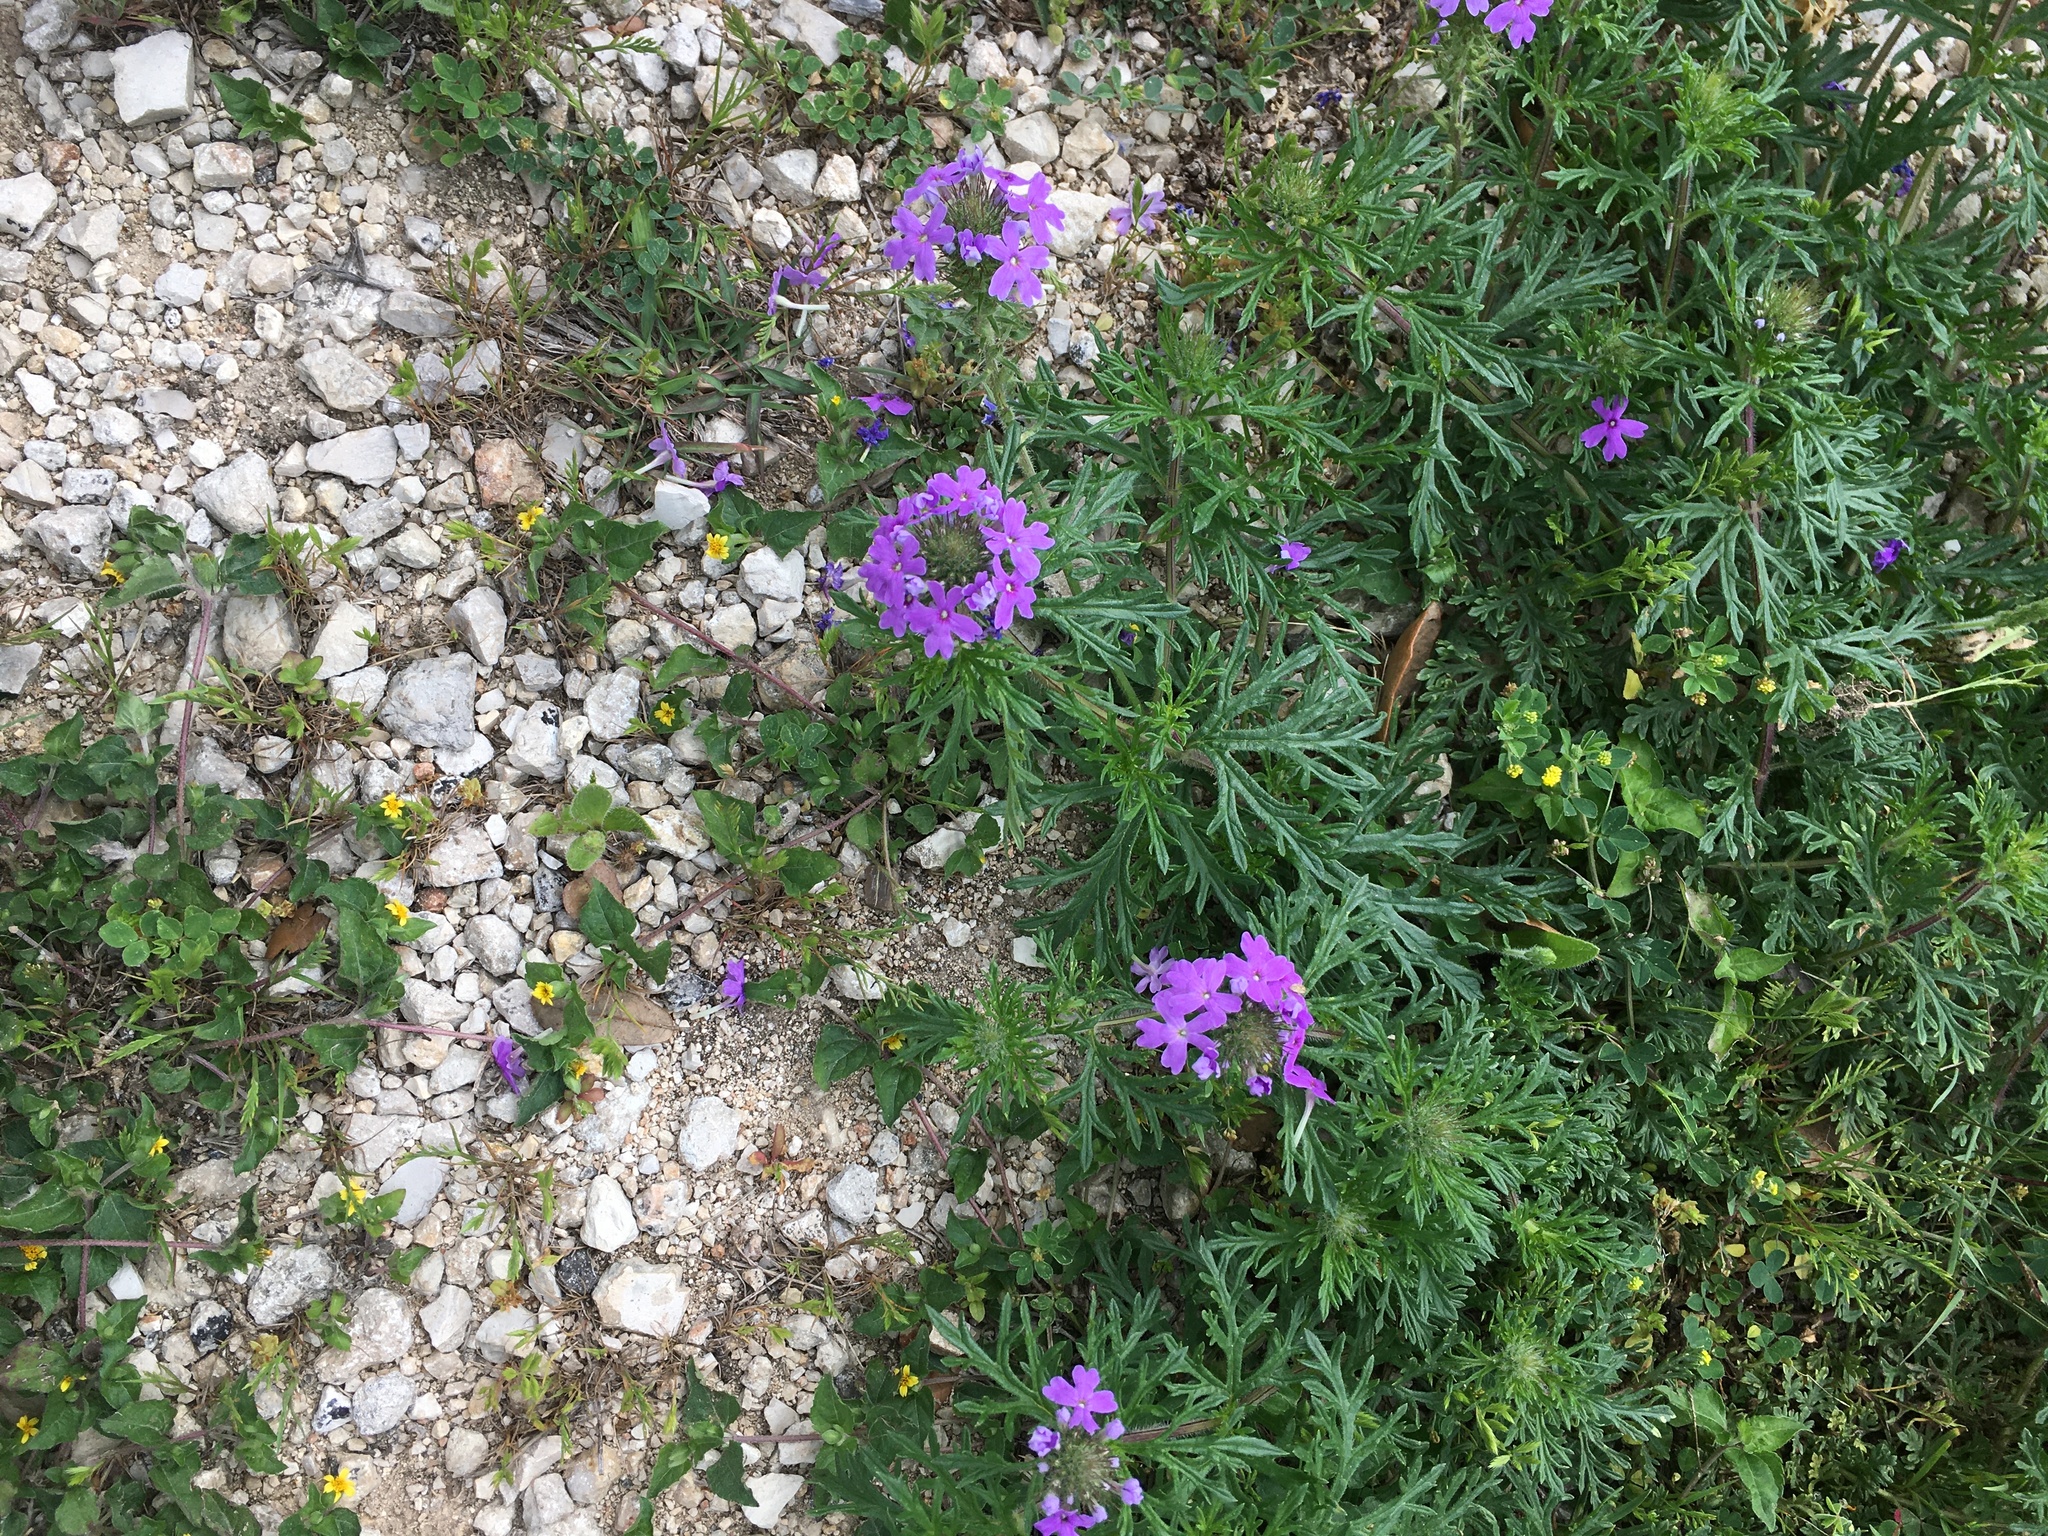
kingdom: Plantae
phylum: Tracheophyta
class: Magnoliopsida
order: Lamiales
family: Verbenaceae
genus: Verbena
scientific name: Verbena bipinnatifida
